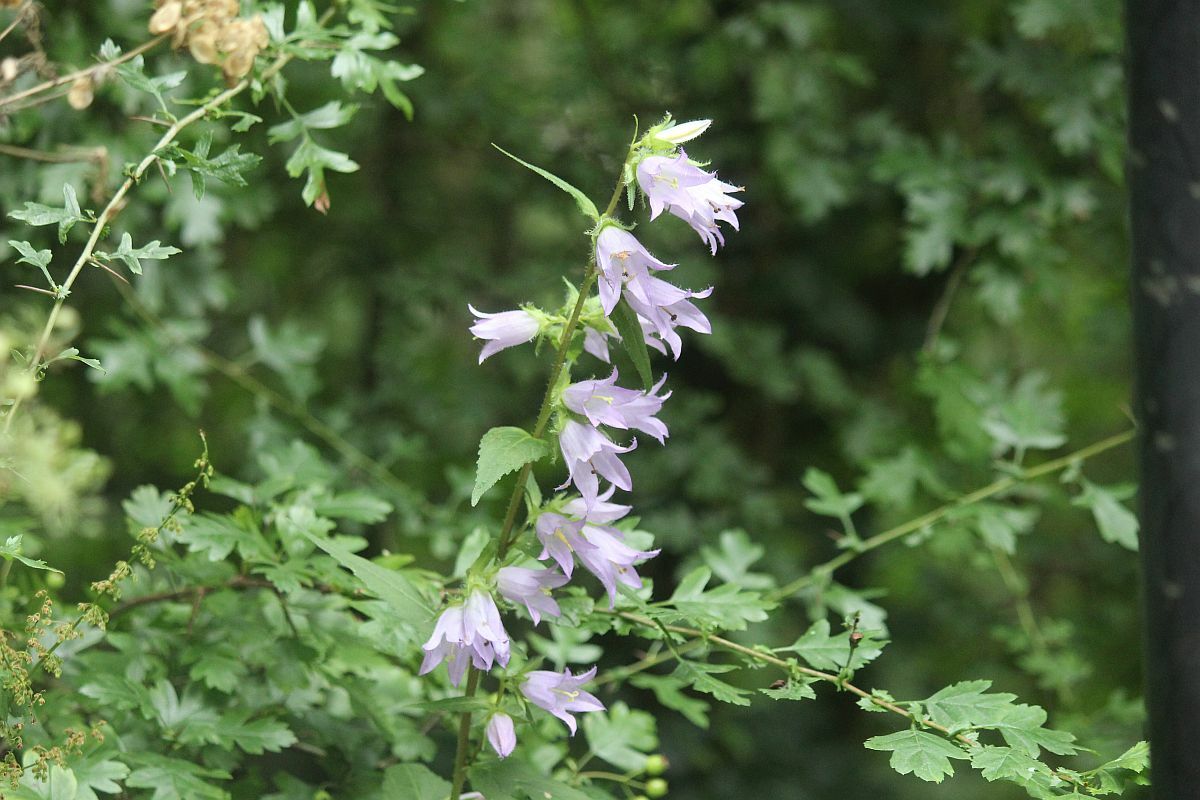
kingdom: Plantae
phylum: Tracheophyta
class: Magnoliopsida
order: Asterales
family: Campanulaceae
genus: Campanula
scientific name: Campanula trachelium
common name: Nettle-leaved bellflower
